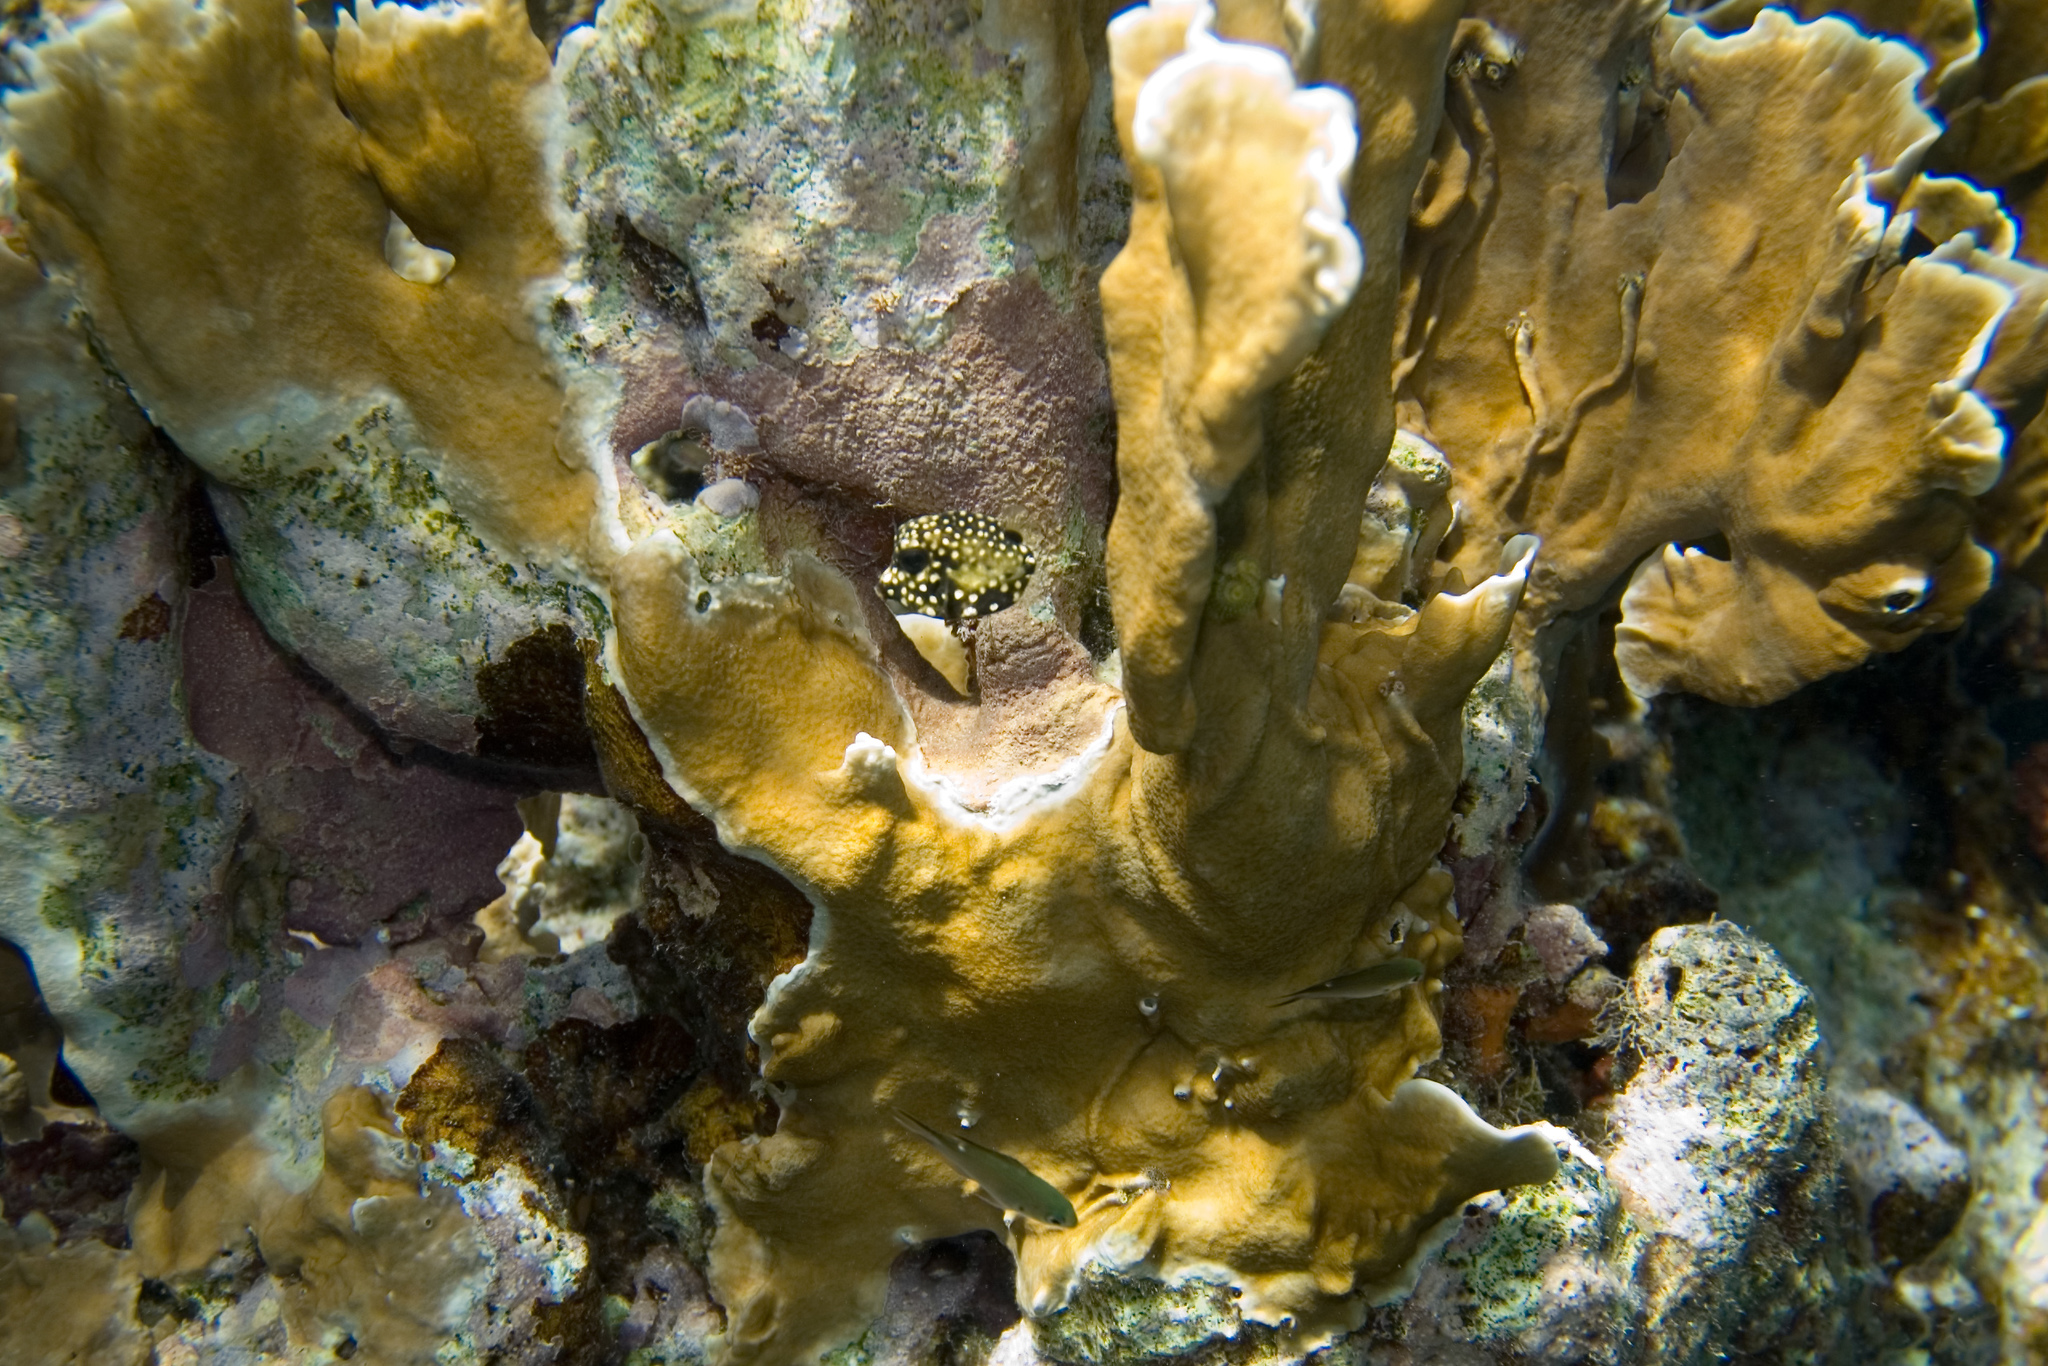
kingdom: Animalia
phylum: Cnidaria
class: Hydrozoa
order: Anthoathecata
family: Milleporidae
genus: Millepora
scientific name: Millepora complanata
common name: Bladed fire coral
